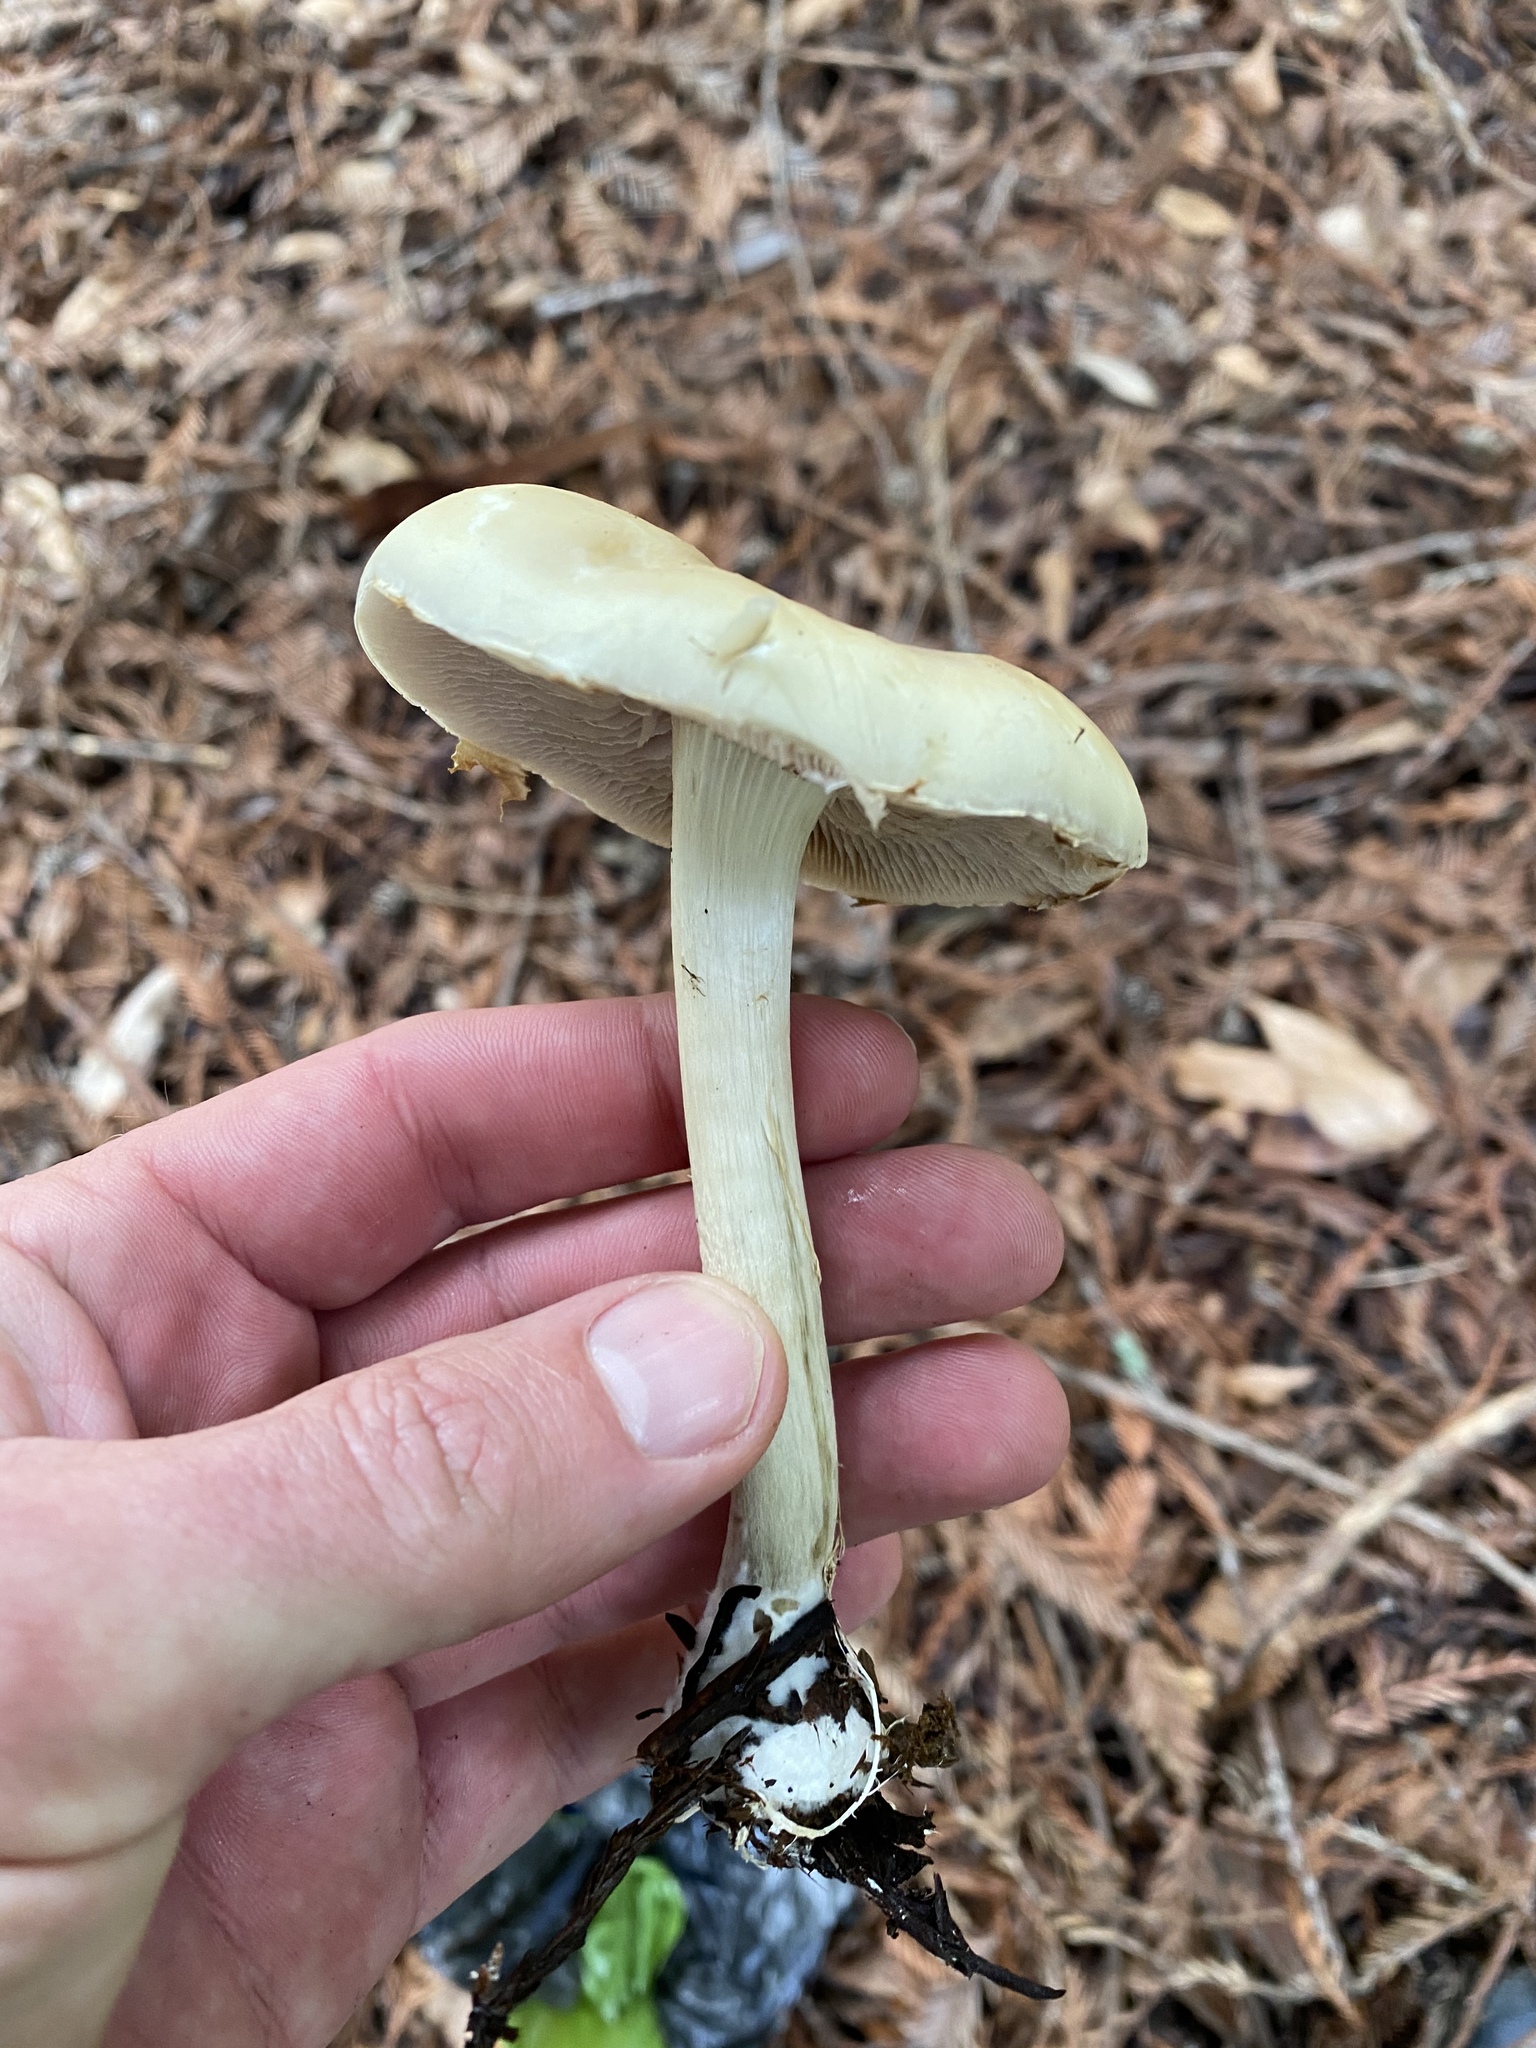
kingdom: Fungi
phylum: Basidiomycota
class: Agaricomycetes
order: Agaricales
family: Strophariaceae
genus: Agrocybe
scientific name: Agrocybe praecox
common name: Spring fieldcap
